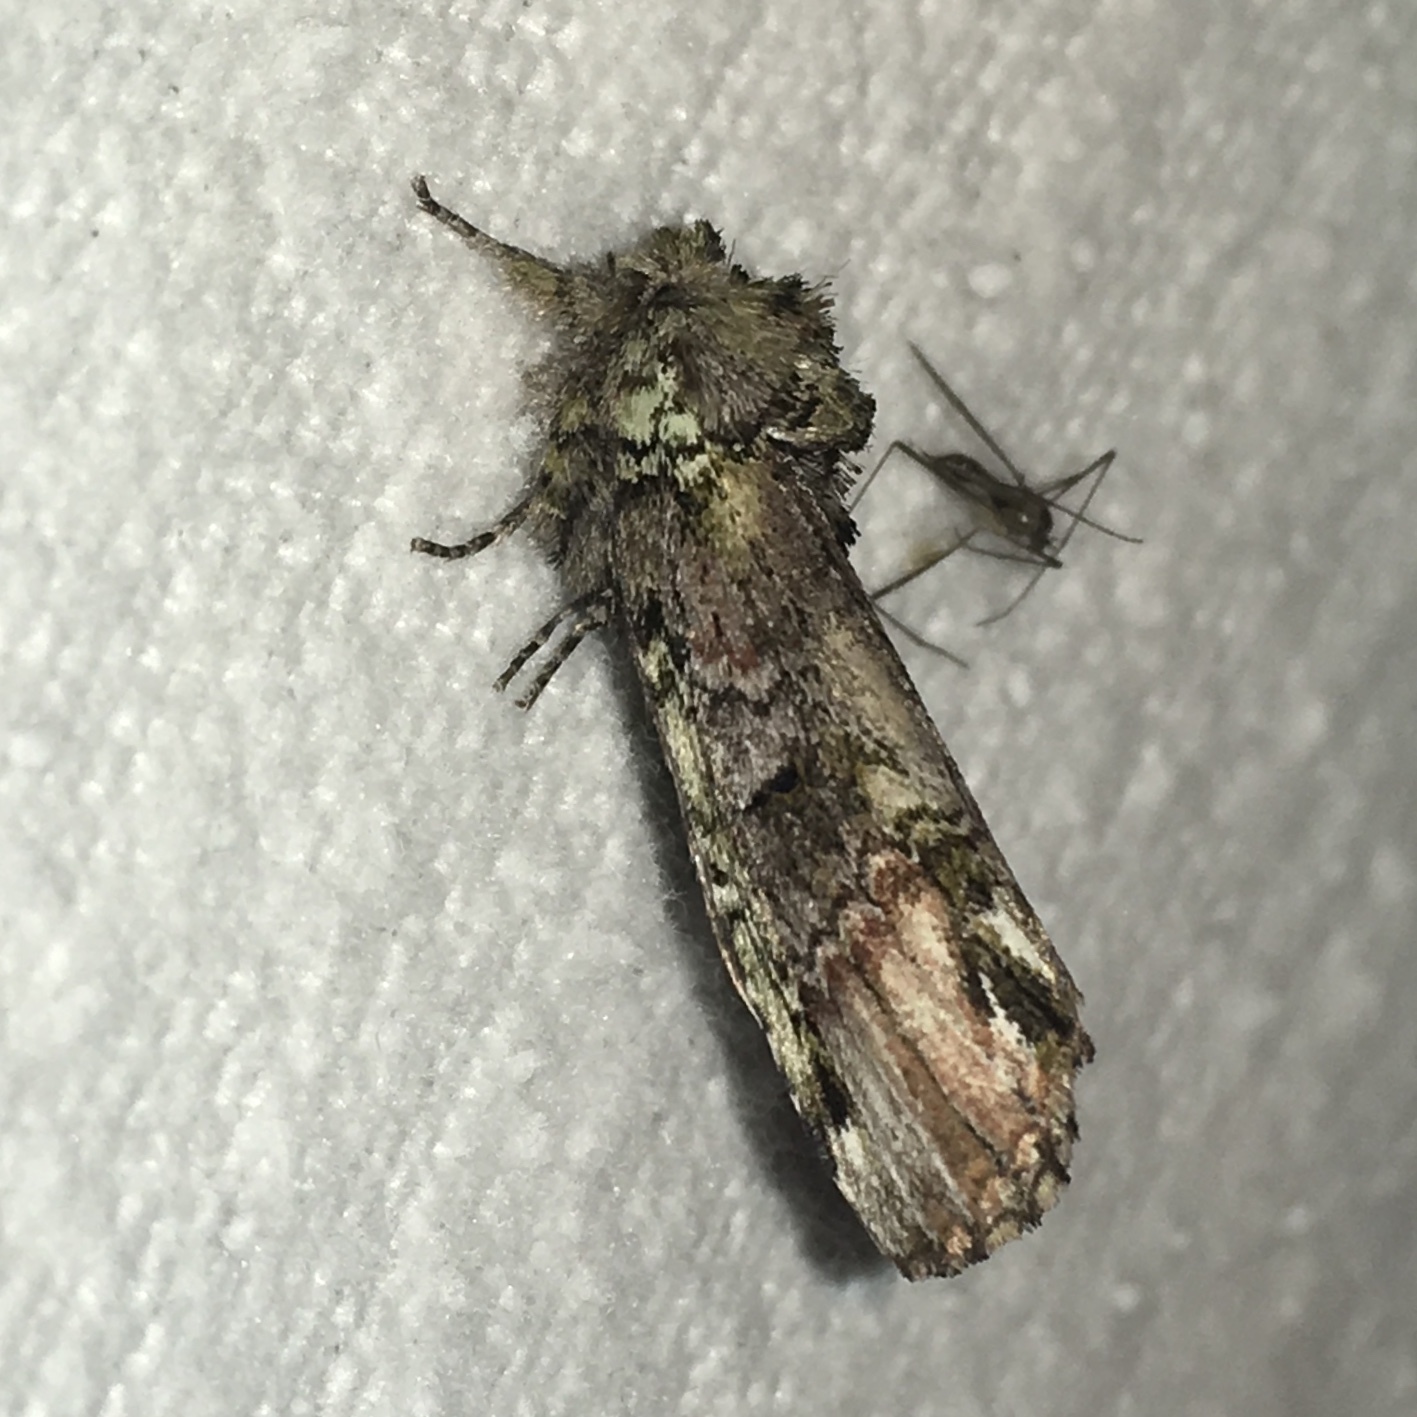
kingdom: Animalia
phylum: Arthropoda
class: Insecta
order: Lepidoptera
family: Notodontidae
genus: Schizura
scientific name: Schizura
